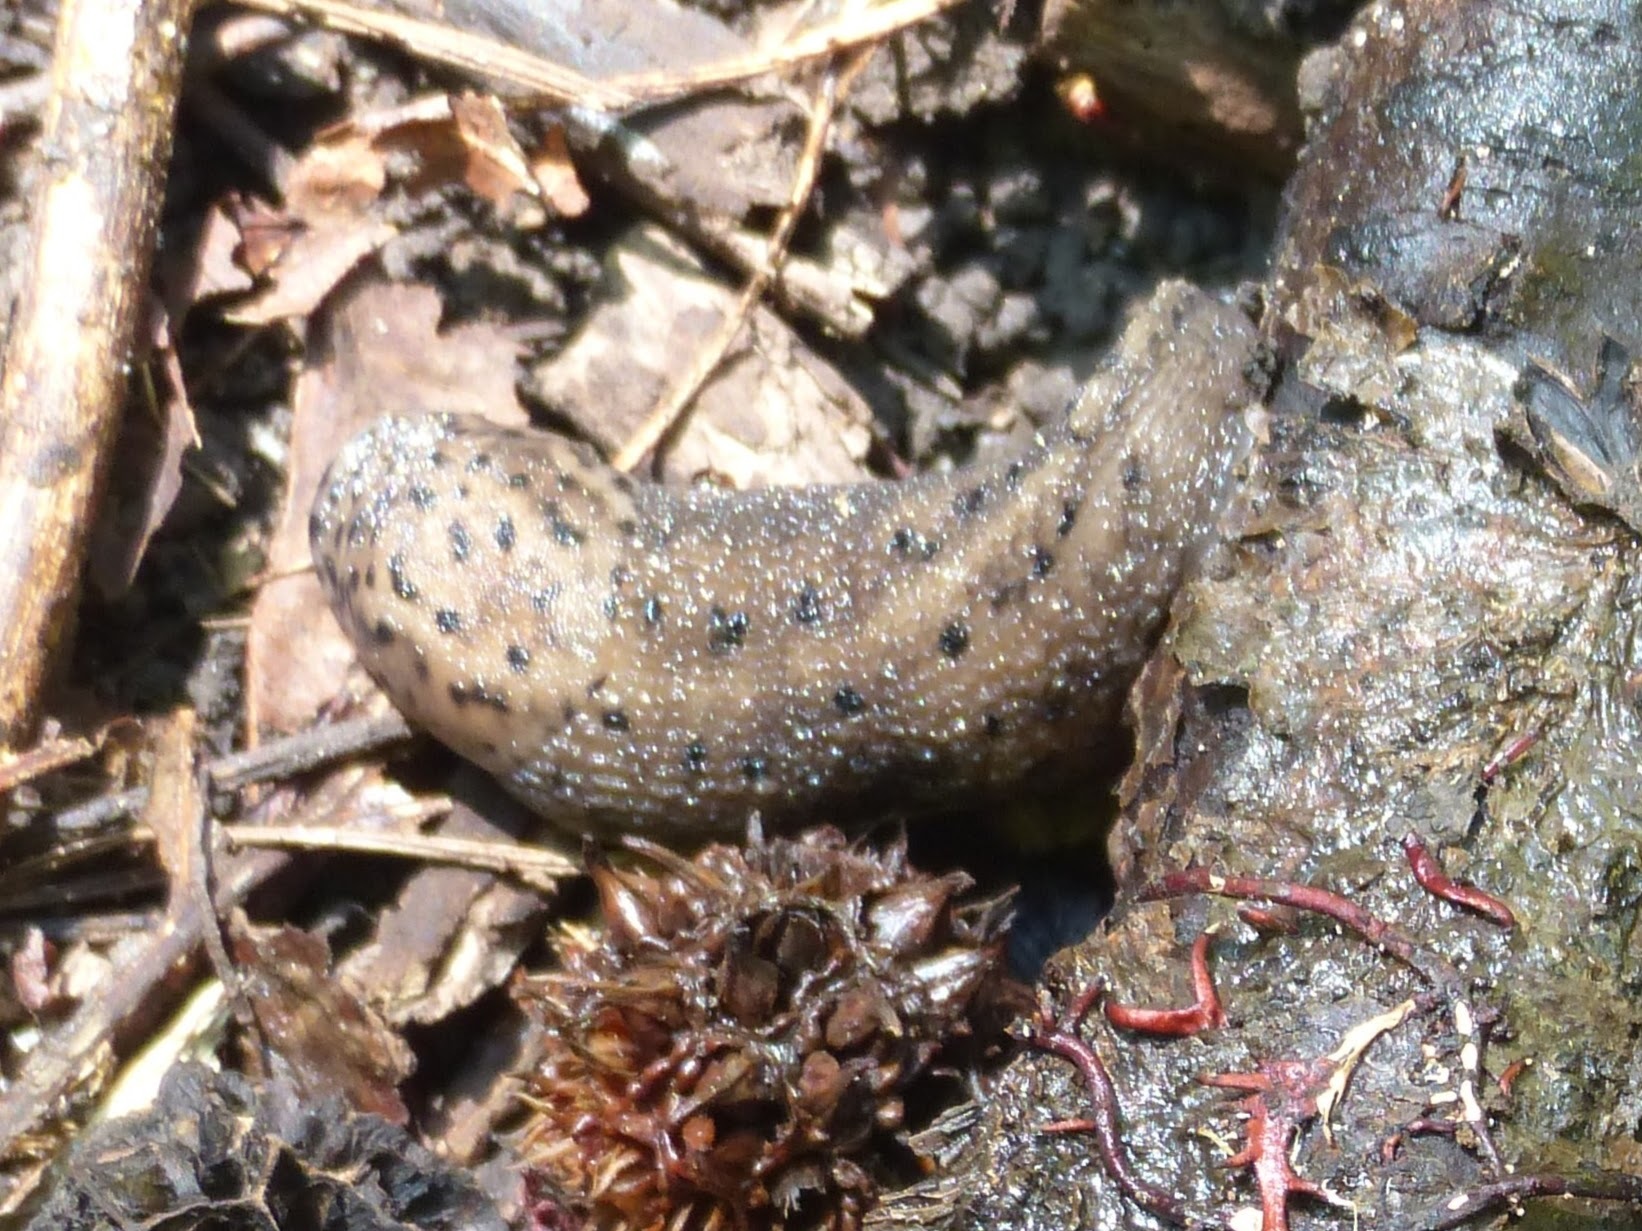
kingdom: Animalia
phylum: Mollusca
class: Gastropoda
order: Stylommatophora
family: Limacidae
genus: Limax
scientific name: Limax maximus
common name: Great grey slug
